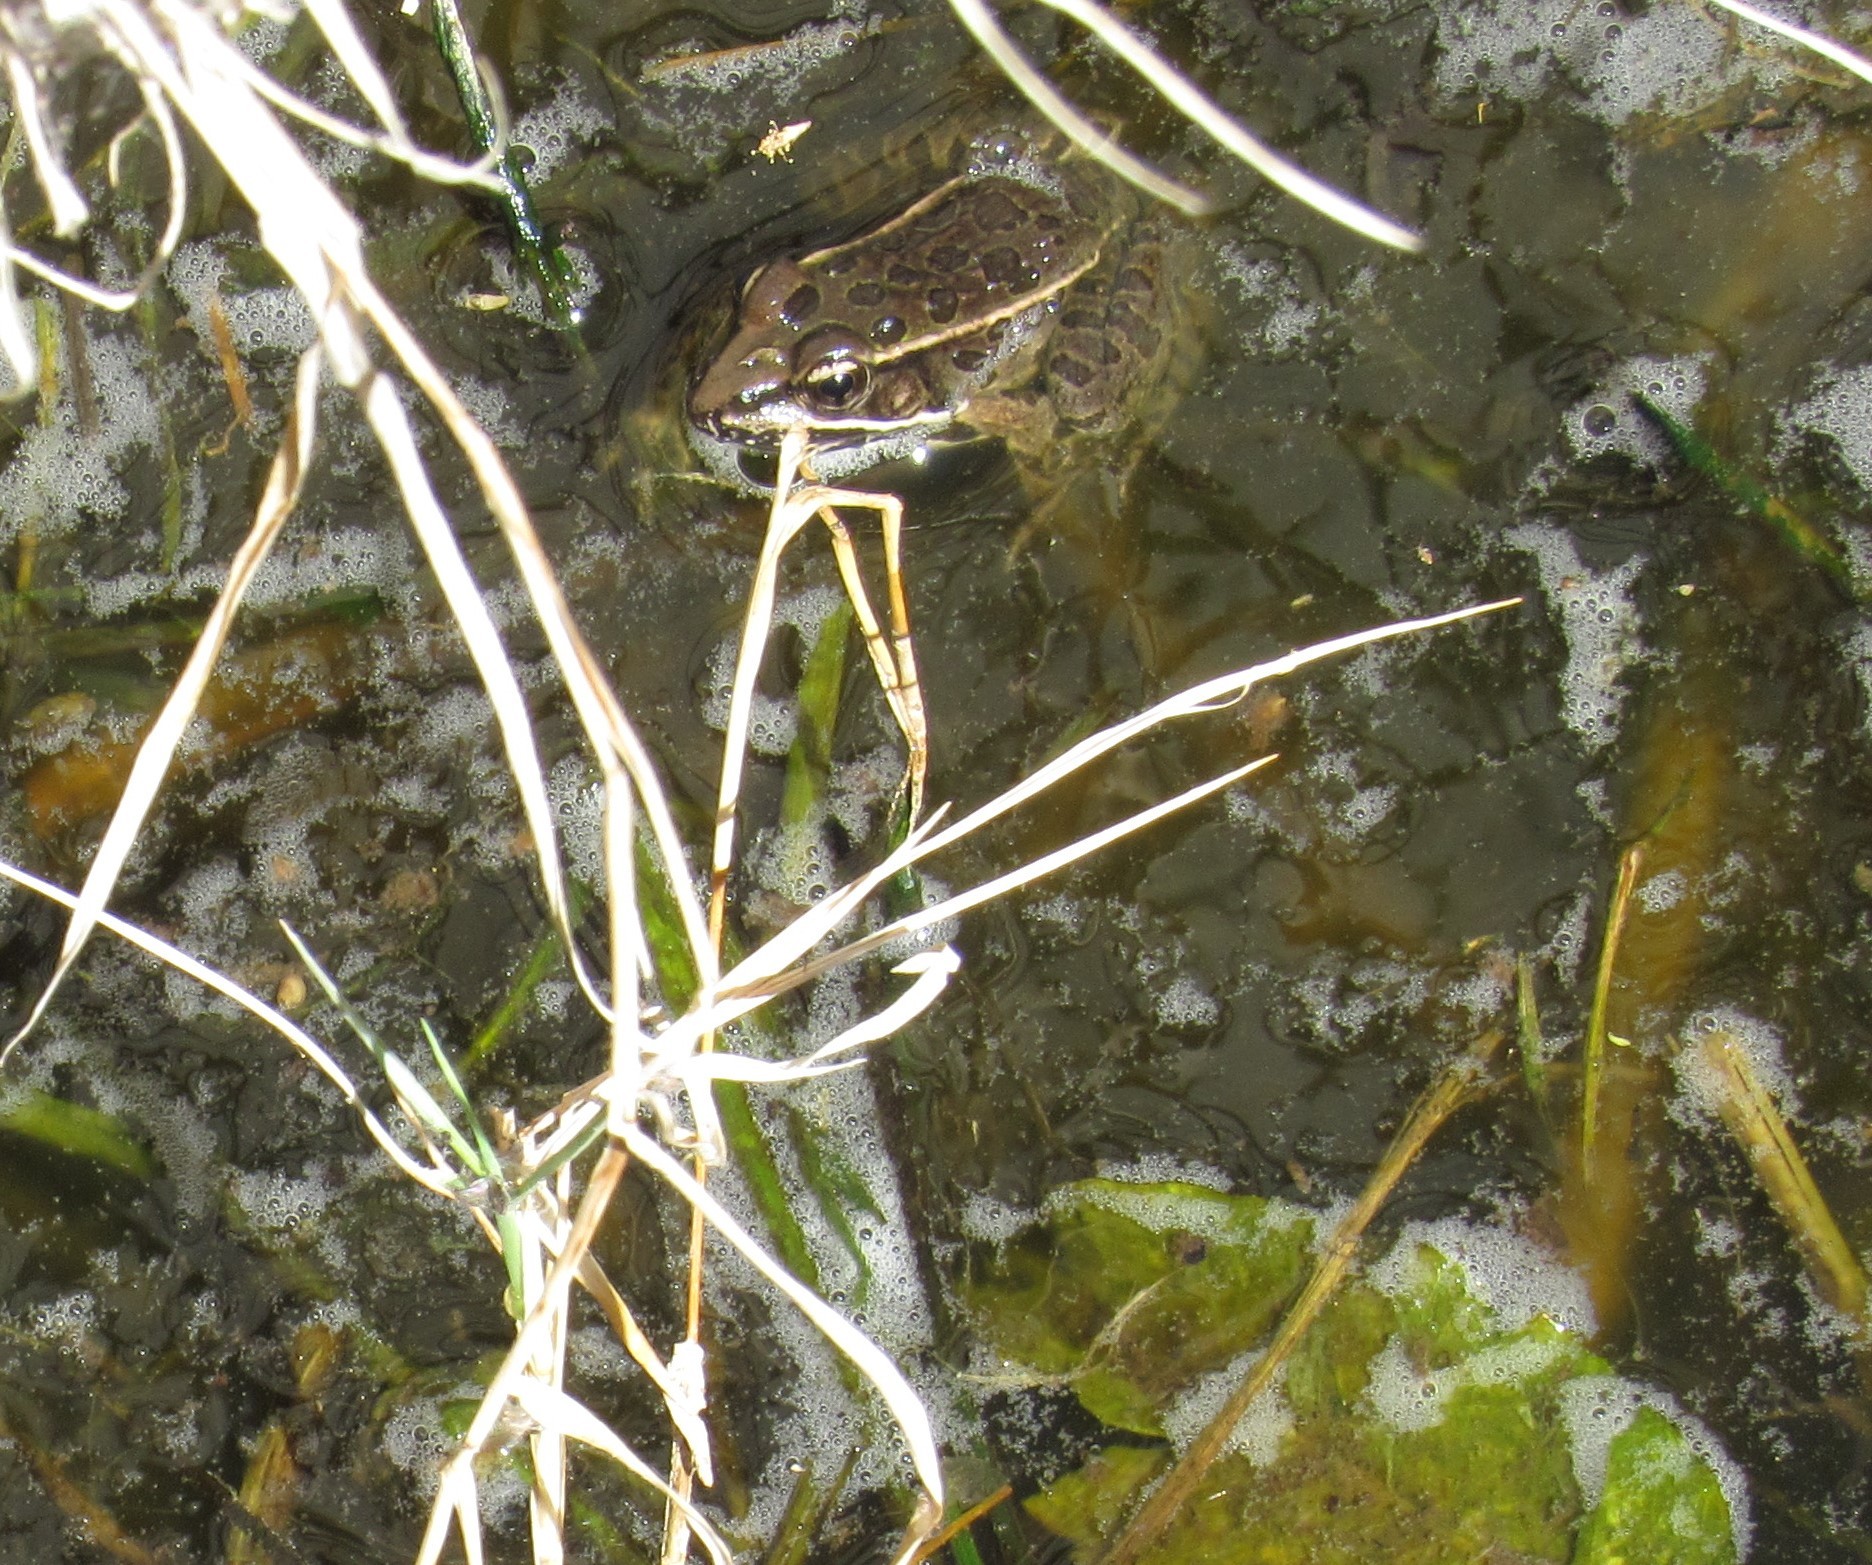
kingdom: Animalia
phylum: Chordata
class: Amphibia
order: Anura
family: Ranidae
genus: Lithobates
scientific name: Lithobates neovolcanicus
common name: Transverse volcanic leopard frog
